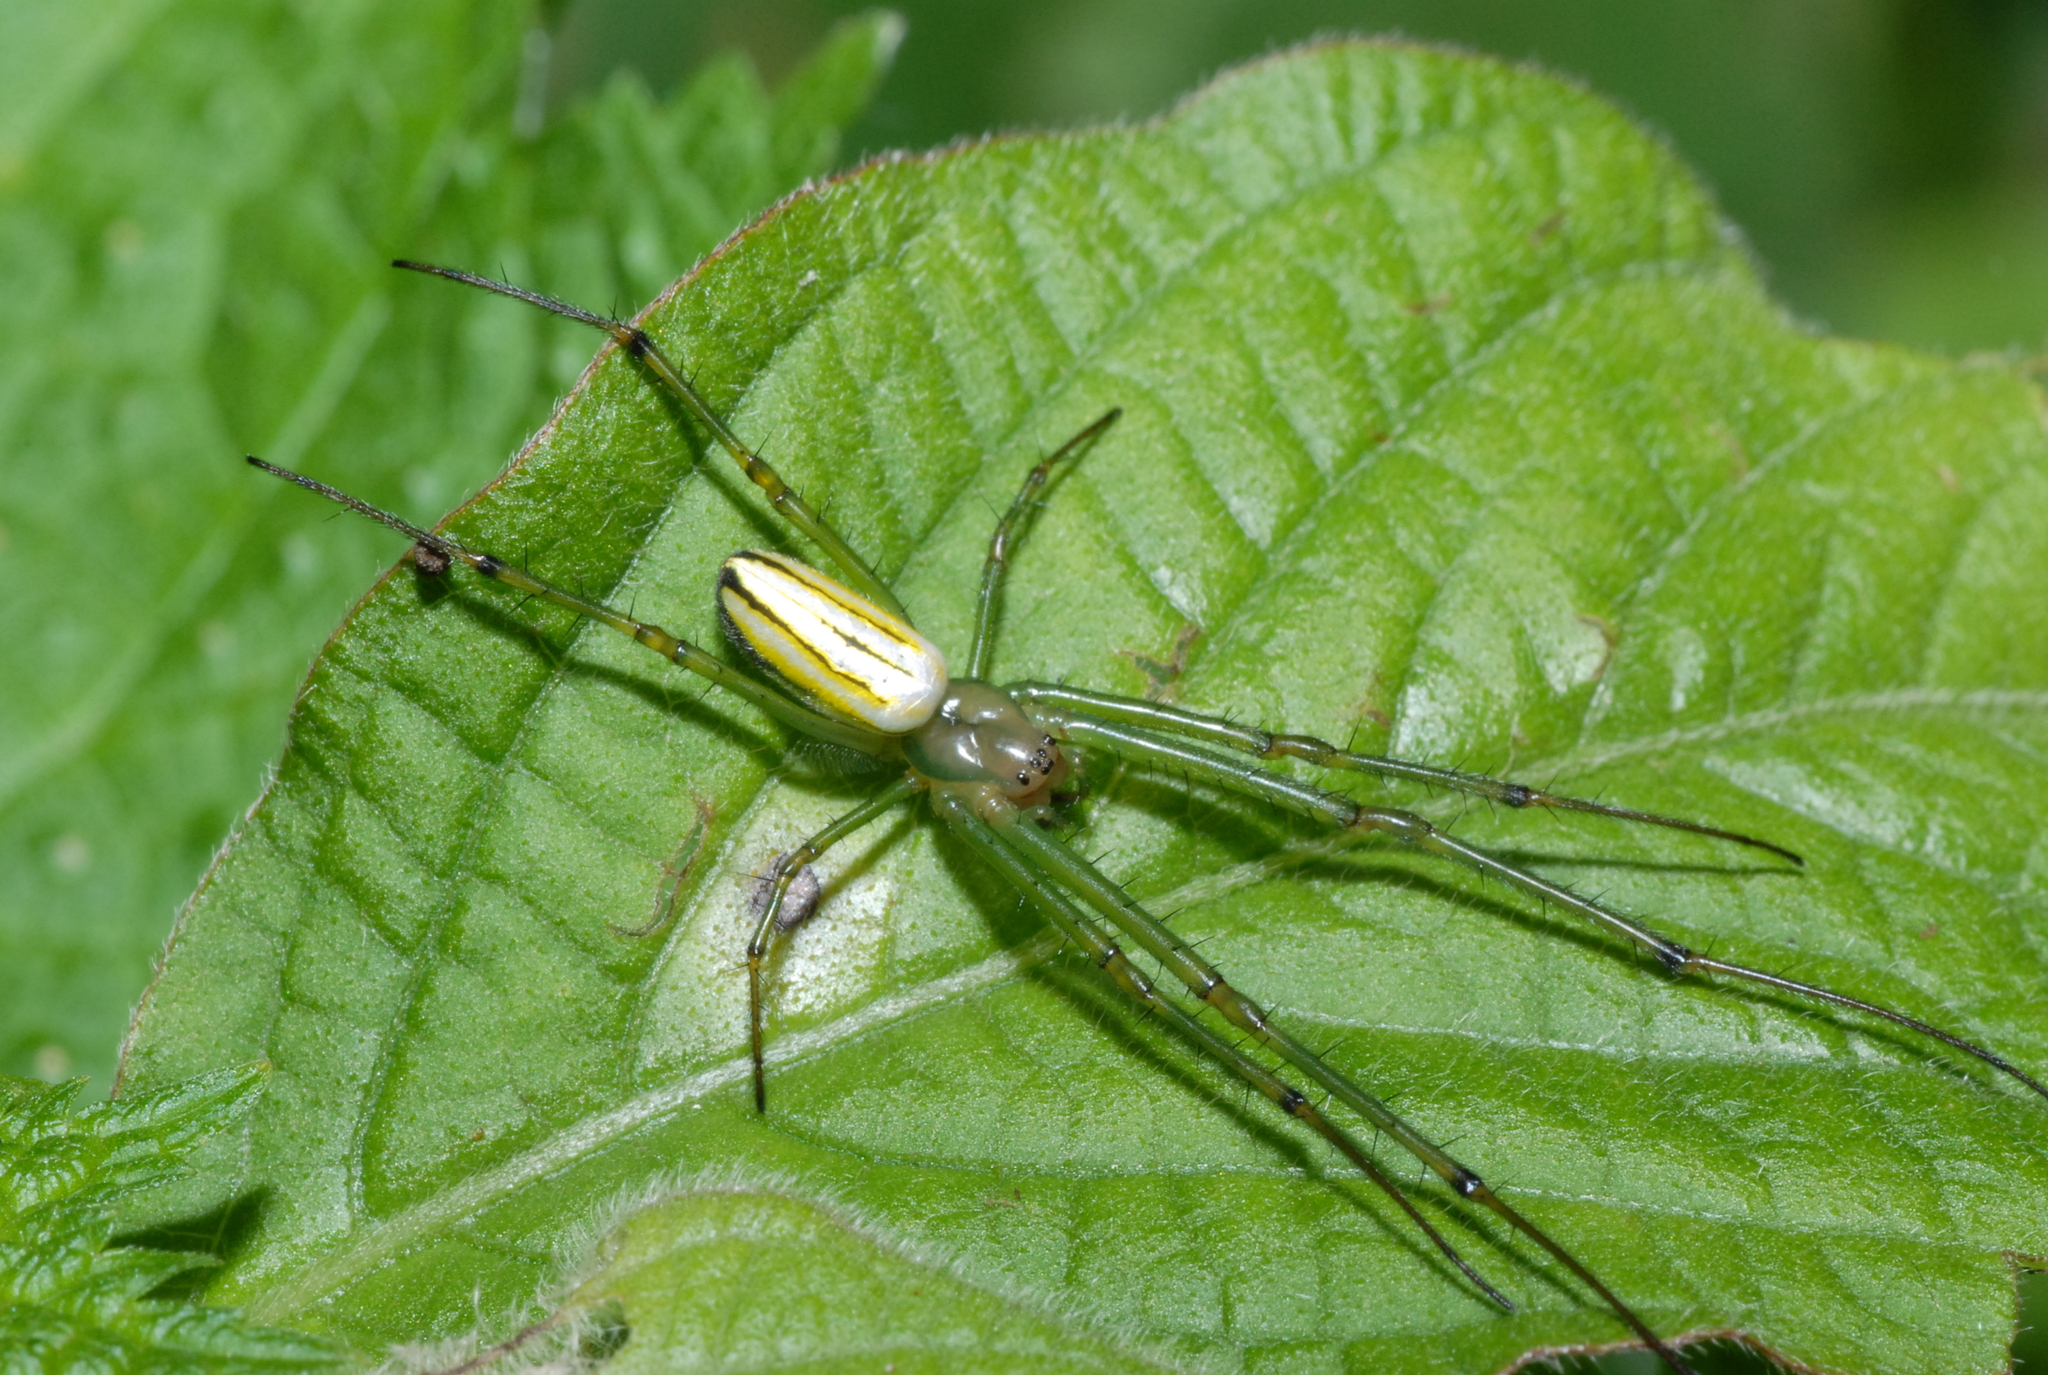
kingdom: Animalia
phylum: Arthropoda
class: Arachnida
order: Araneae
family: Tetragnathidae
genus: Leucauge
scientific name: Leucauge celebesiana
